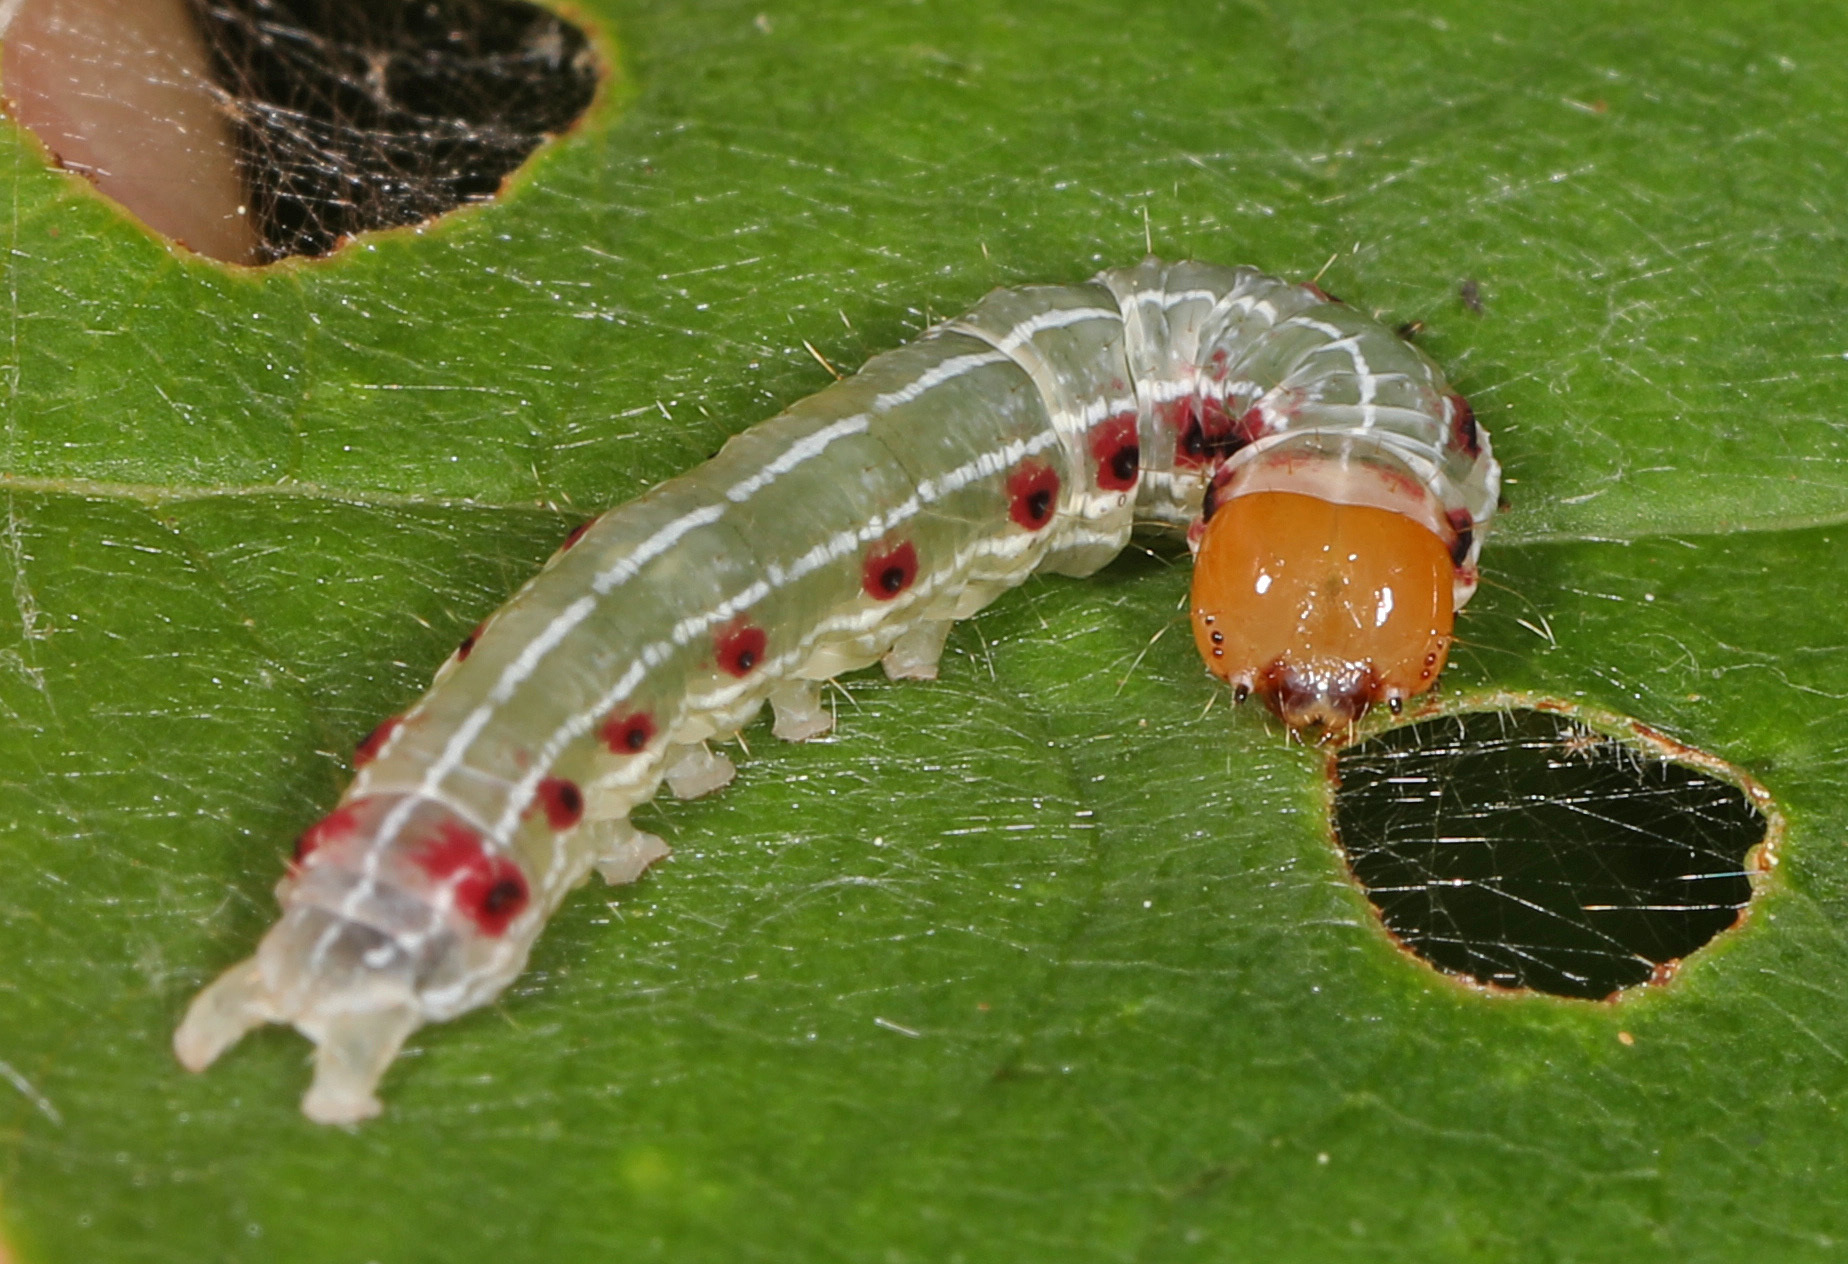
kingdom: Animalia
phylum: Arthropoda
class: Insecta
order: Lepidoptera
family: Noctuidae
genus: Achatia
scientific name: Achatia confusa
